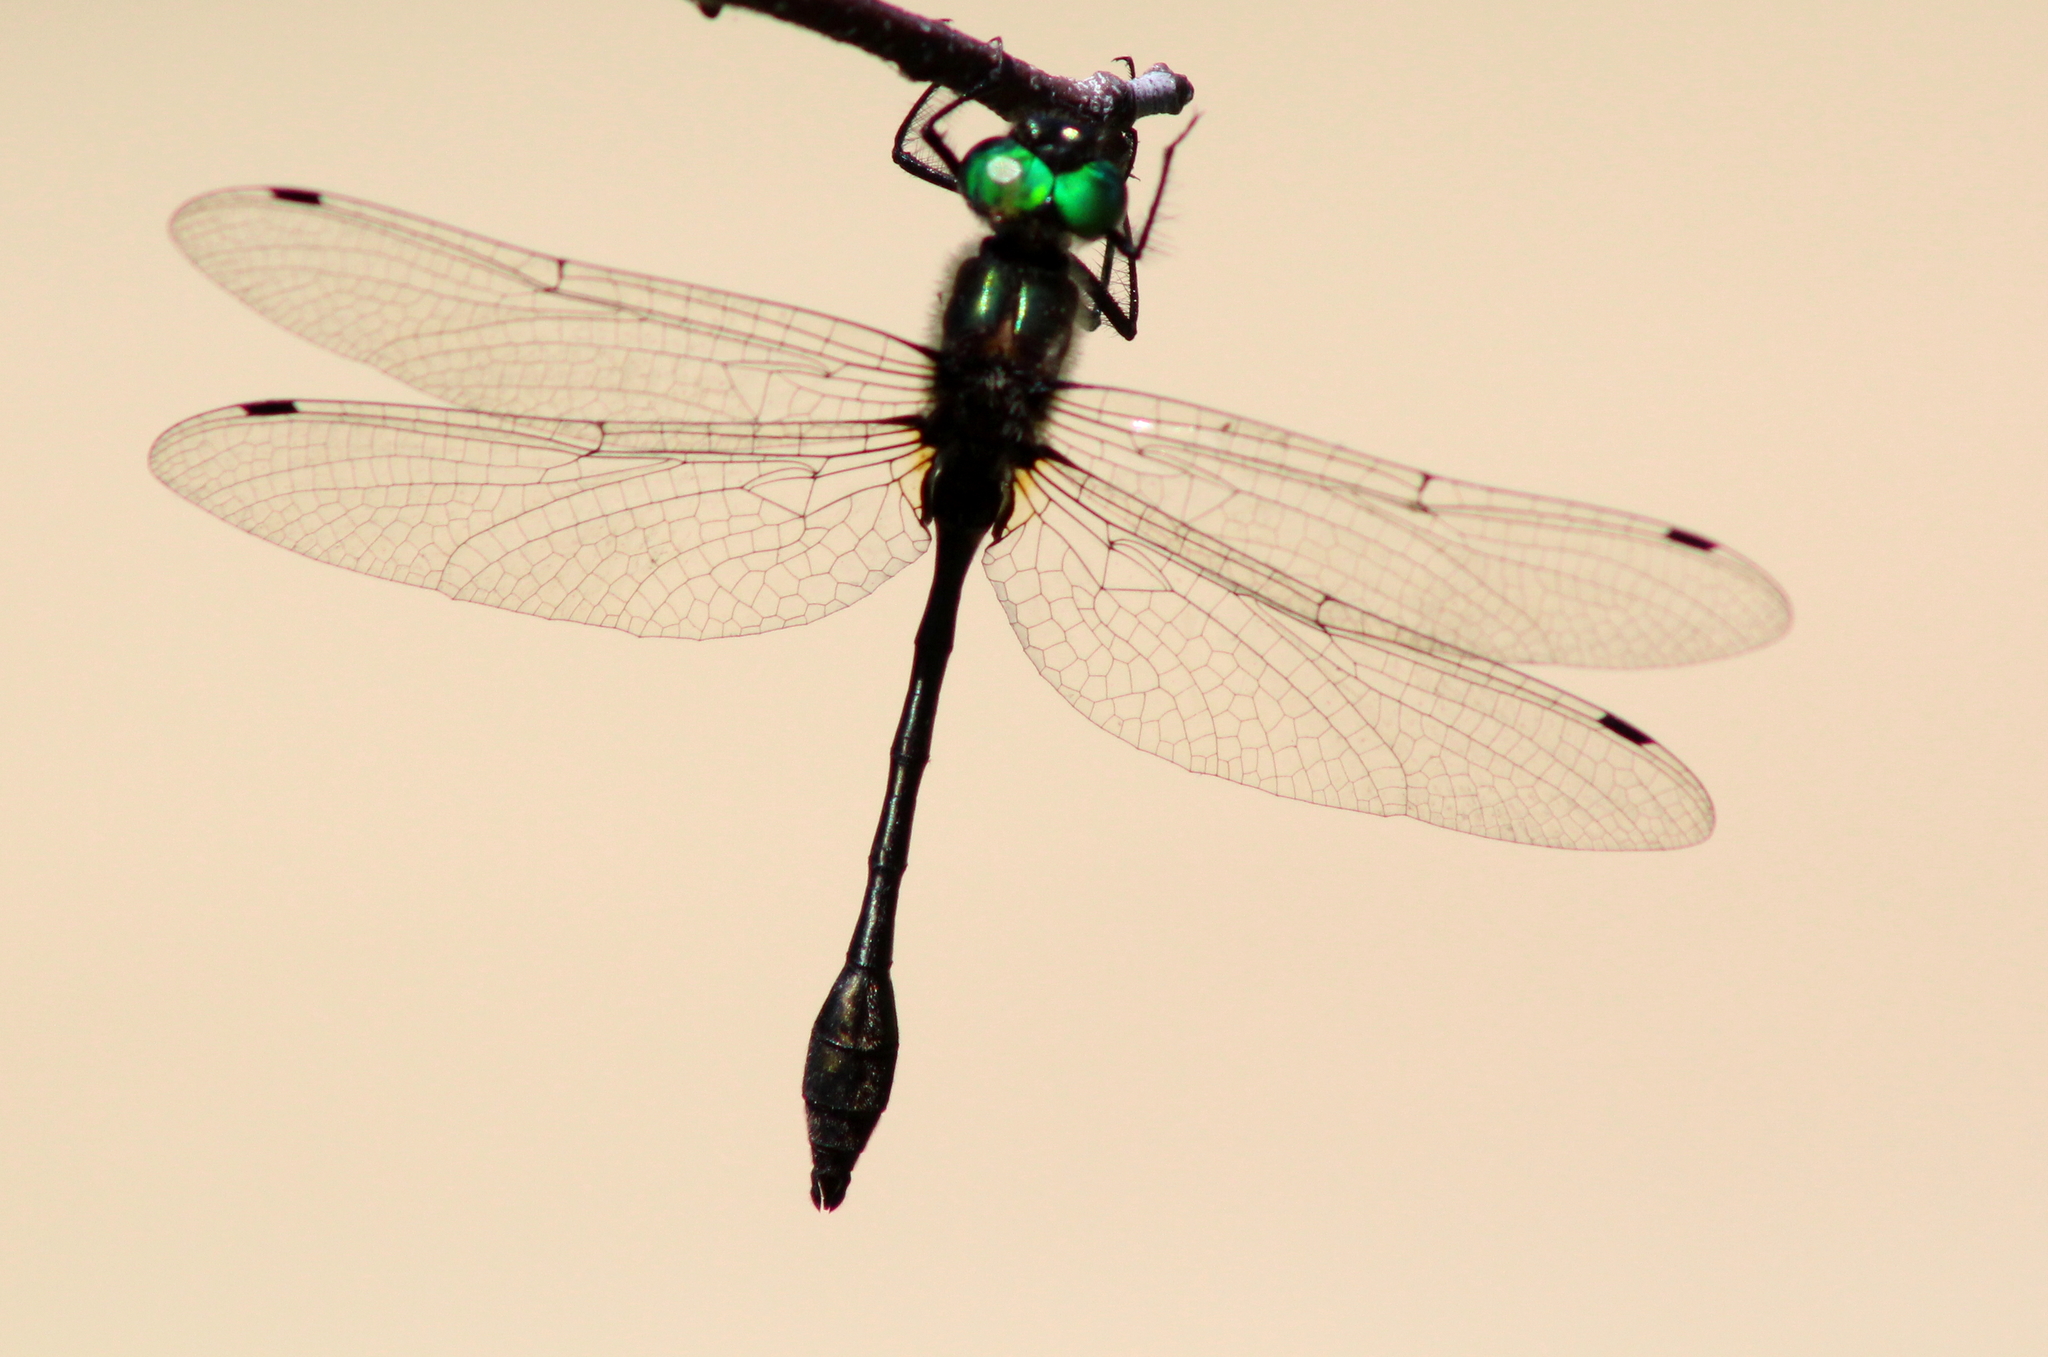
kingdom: Animalia
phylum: Arthropoda
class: Insecta
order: Odonata
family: Corduliidae
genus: Dorocordulia
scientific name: Dorocordulia libera
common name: Racket-tailed emerald
